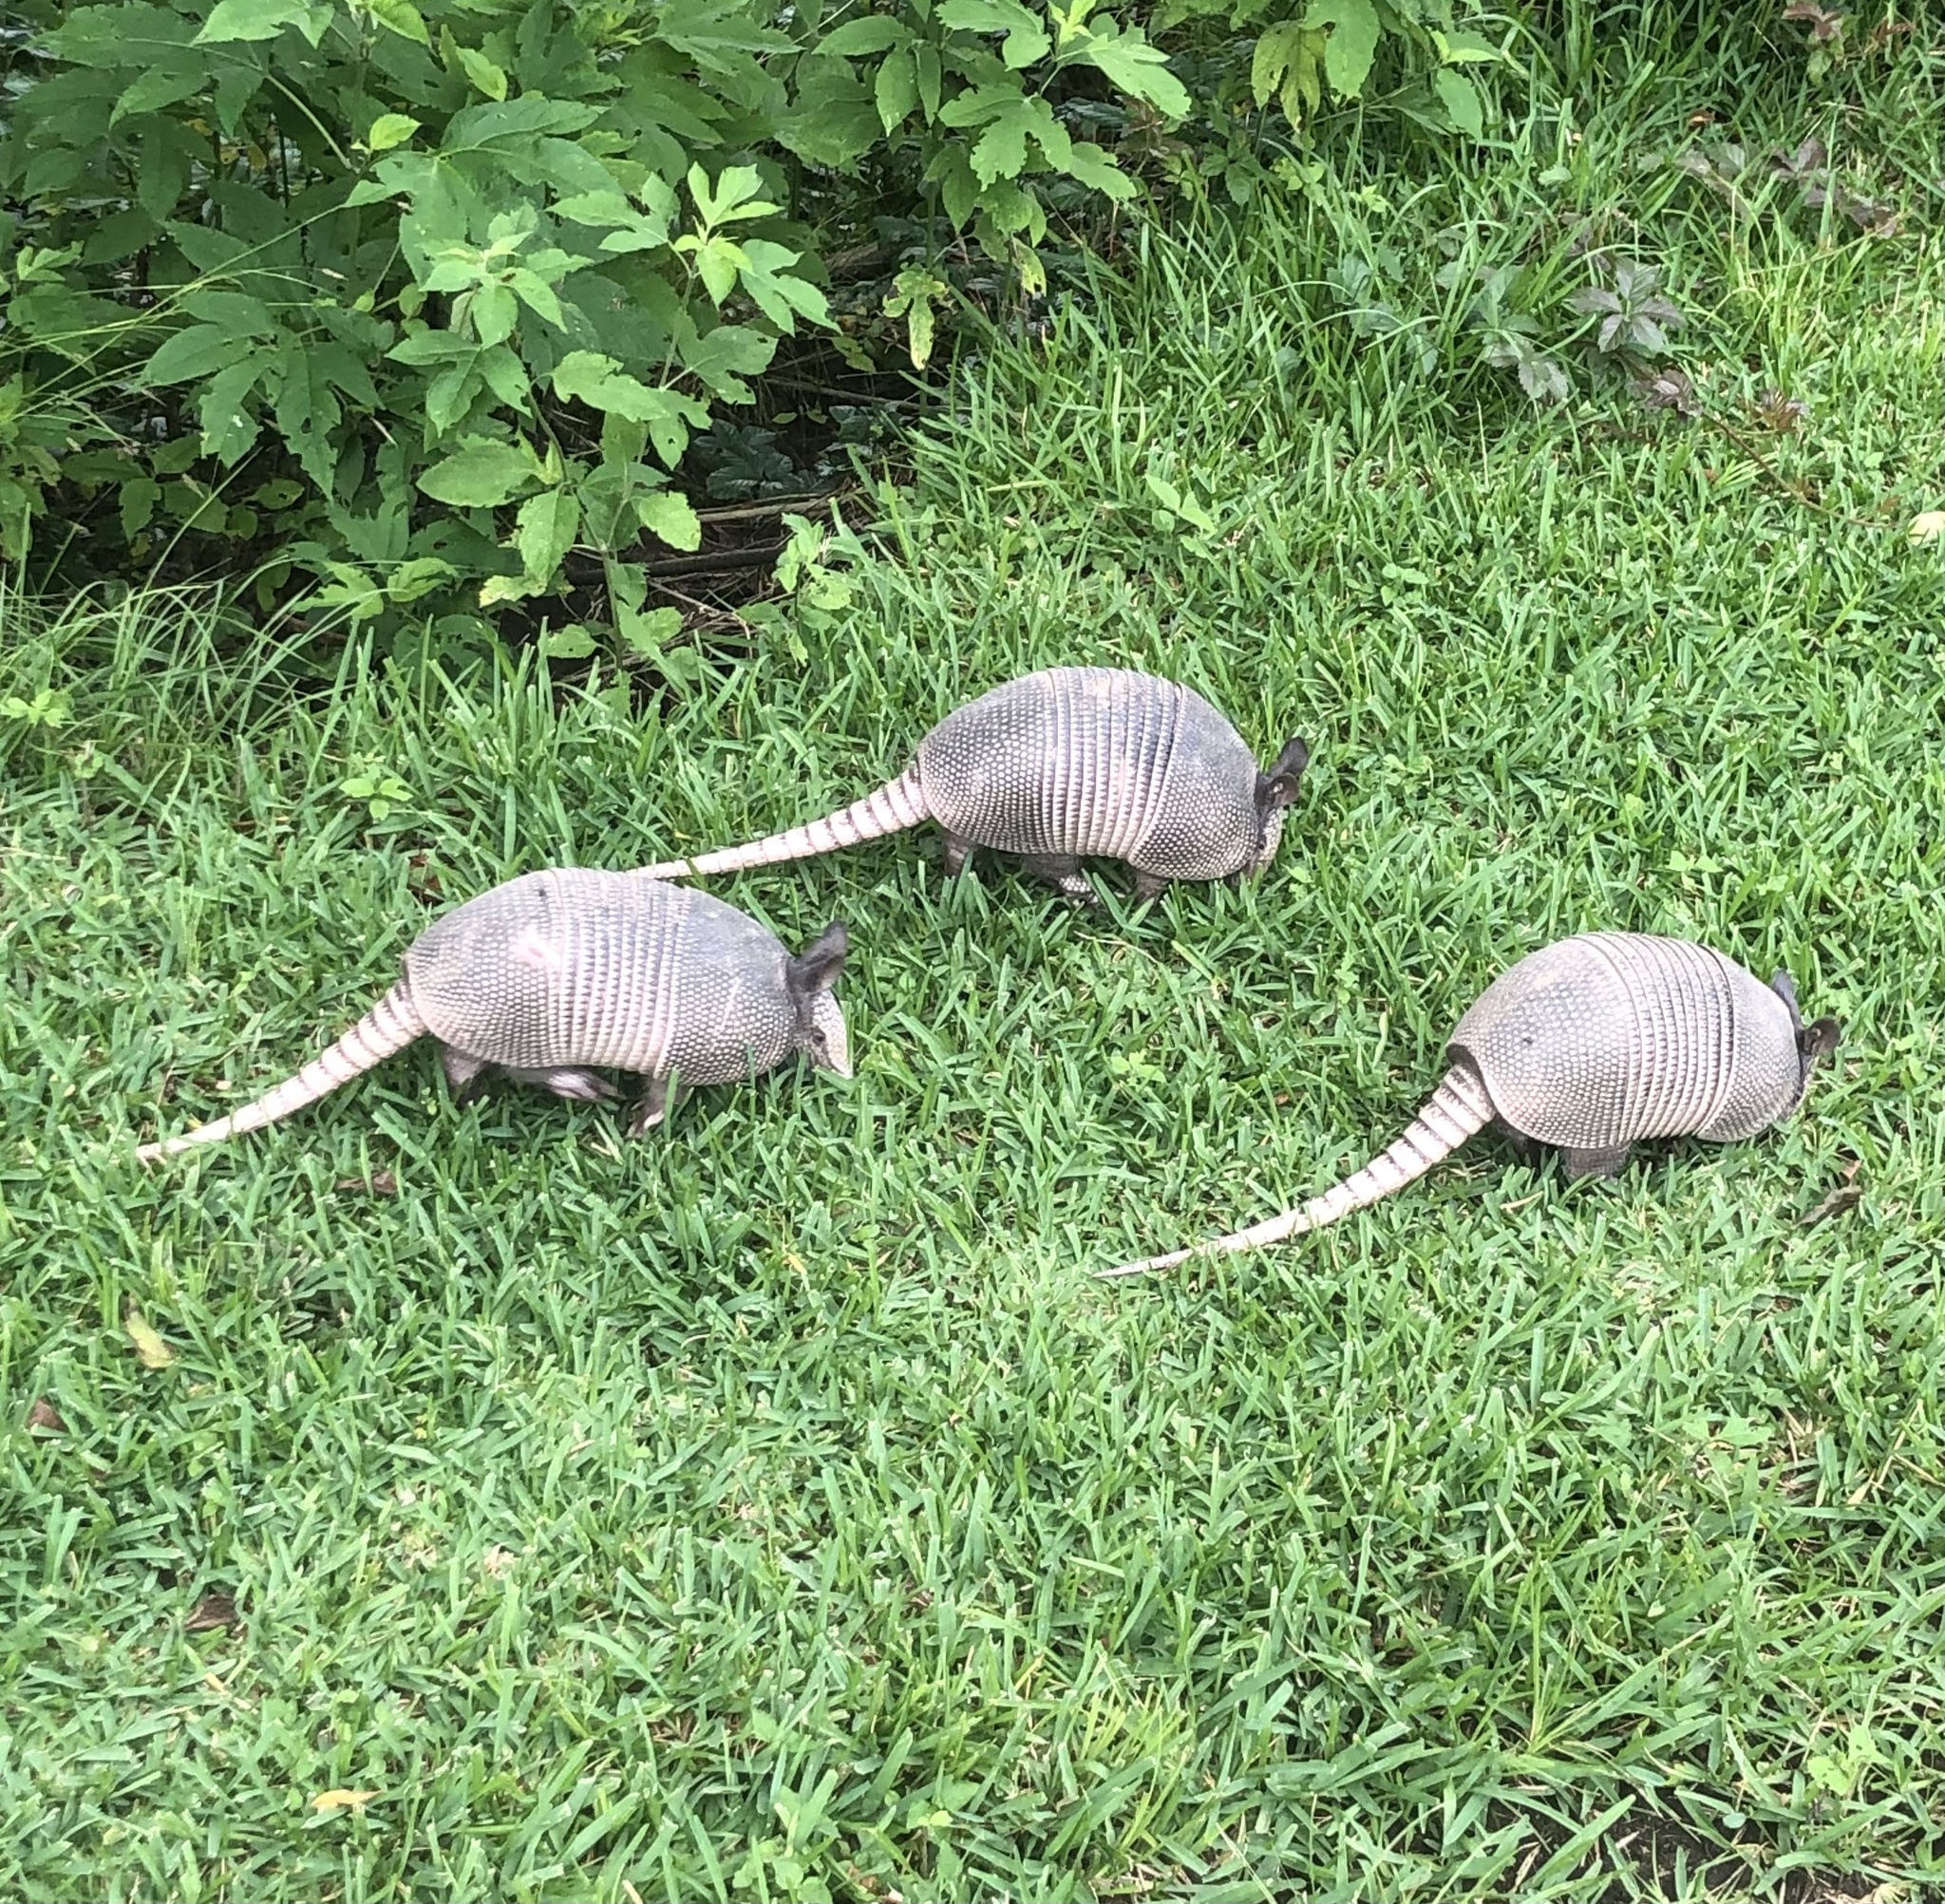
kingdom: Animalia
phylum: Chordata
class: Mammalia
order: Cingulata
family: Dasypodidae
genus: Dasypus
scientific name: Dasypus novemcinctus
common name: Nine-banded armadillo
